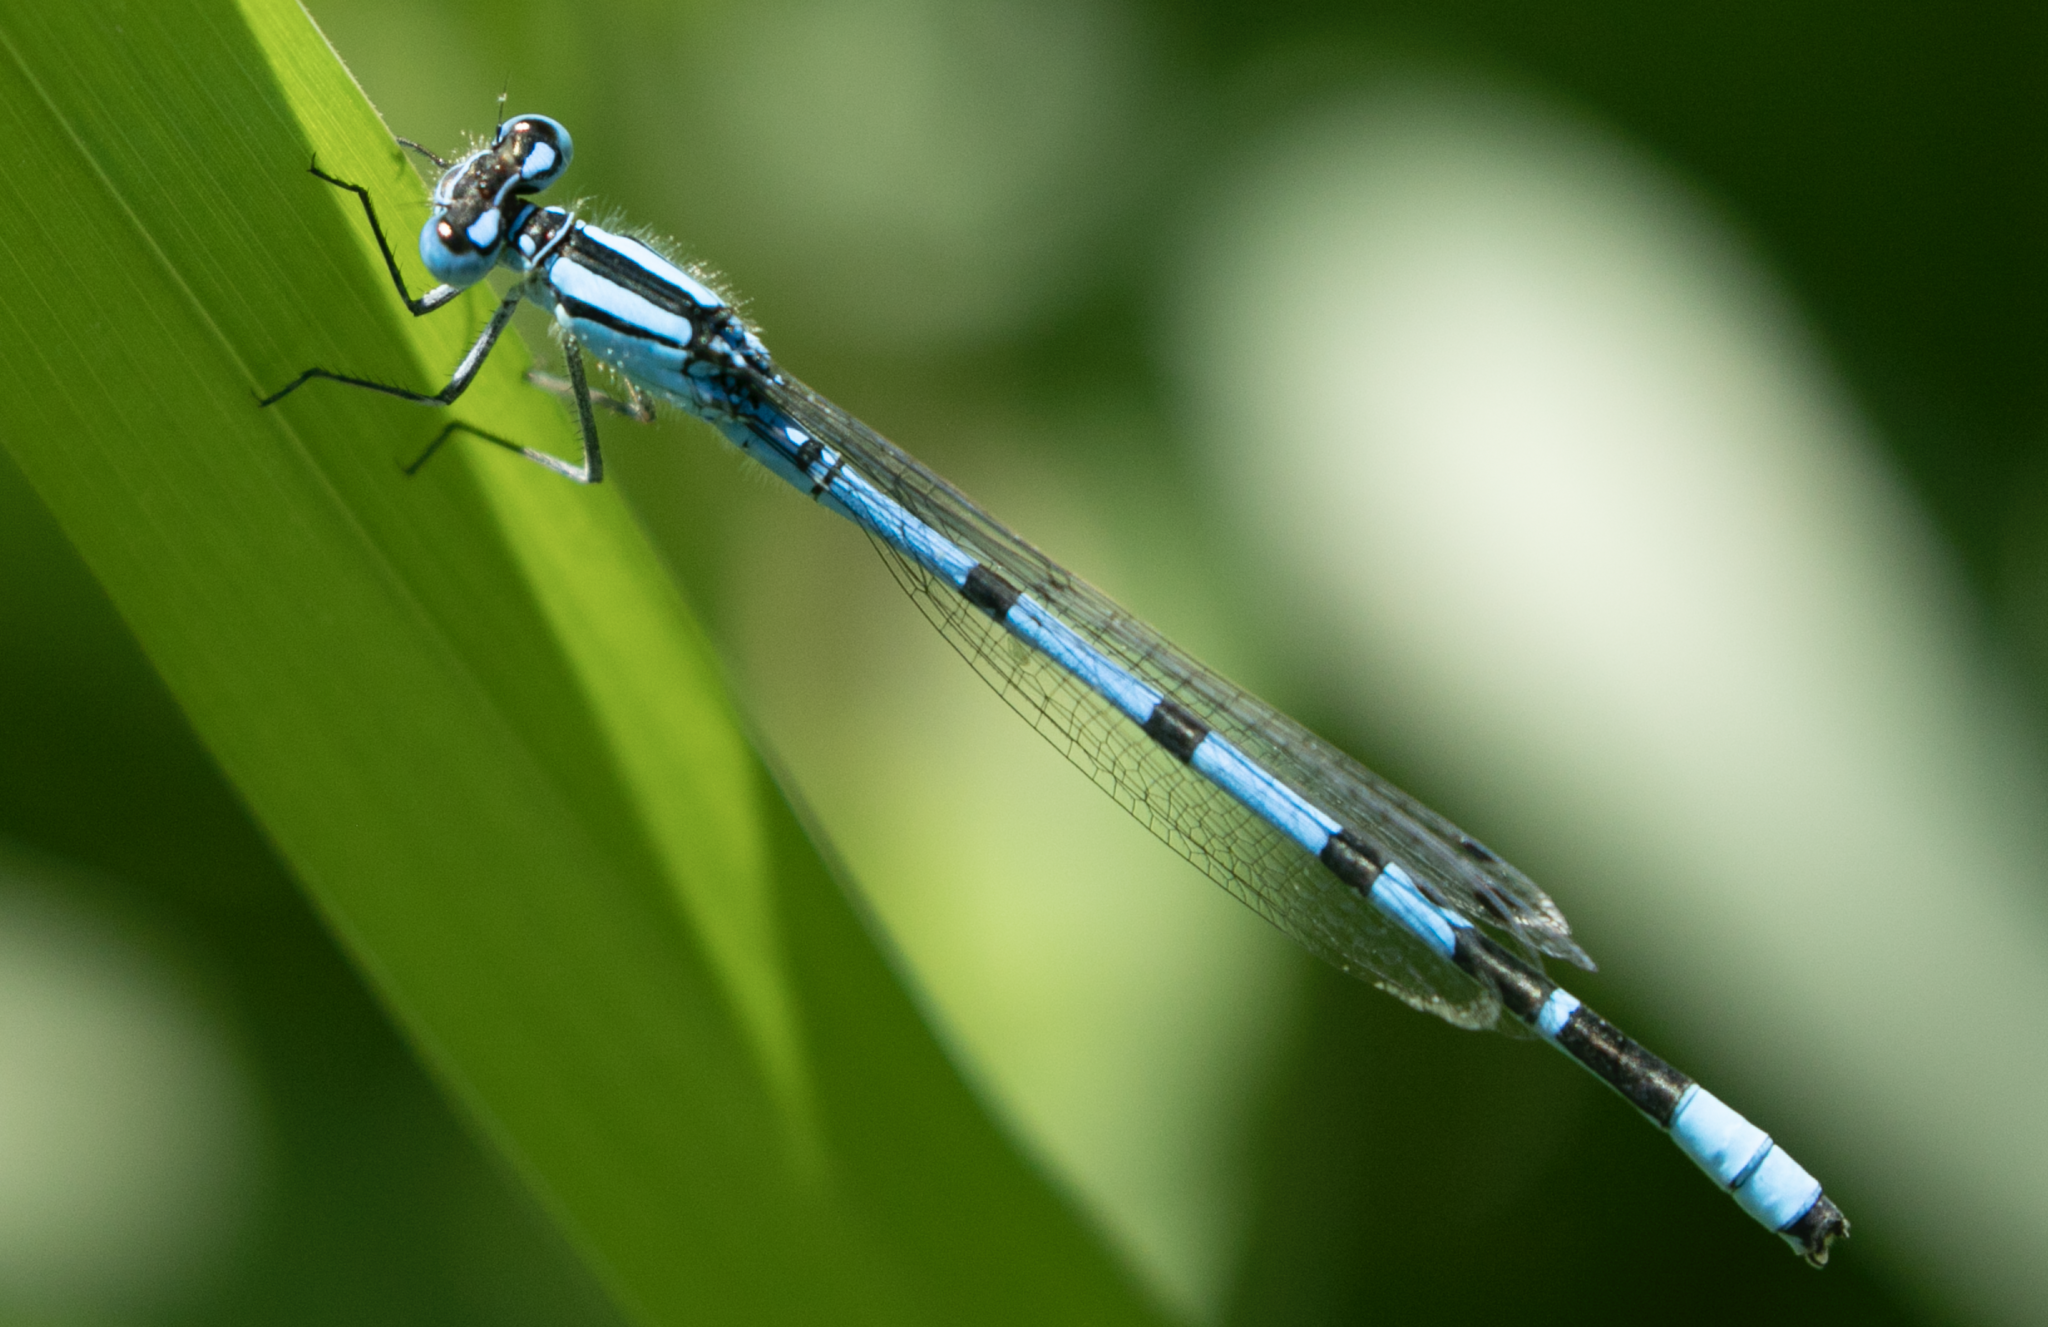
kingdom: Animalia
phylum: Arthropoda
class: Insecta
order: Odonata
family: Coenagrionidae
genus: Enallagma
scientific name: Enallagma cyathigerum
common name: Common blue damselfly
